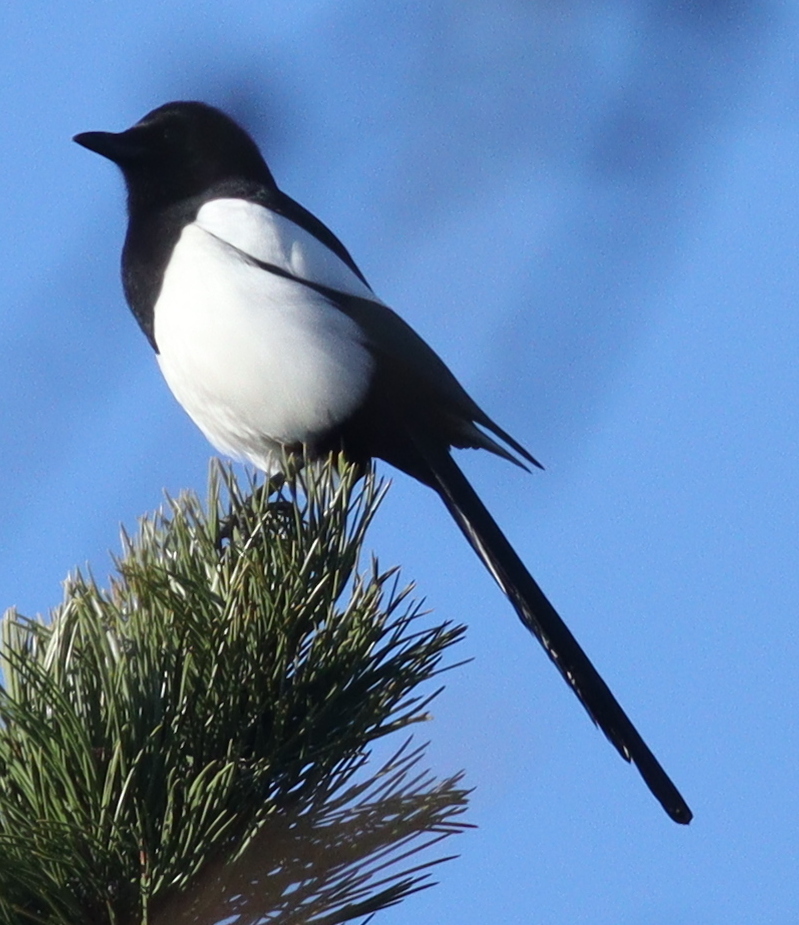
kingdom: Animalia
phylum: Chordata
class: Aves
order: Passeriformes
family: Corvidae
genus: Pica
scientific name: Pica pica
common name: Eurasian magpie
